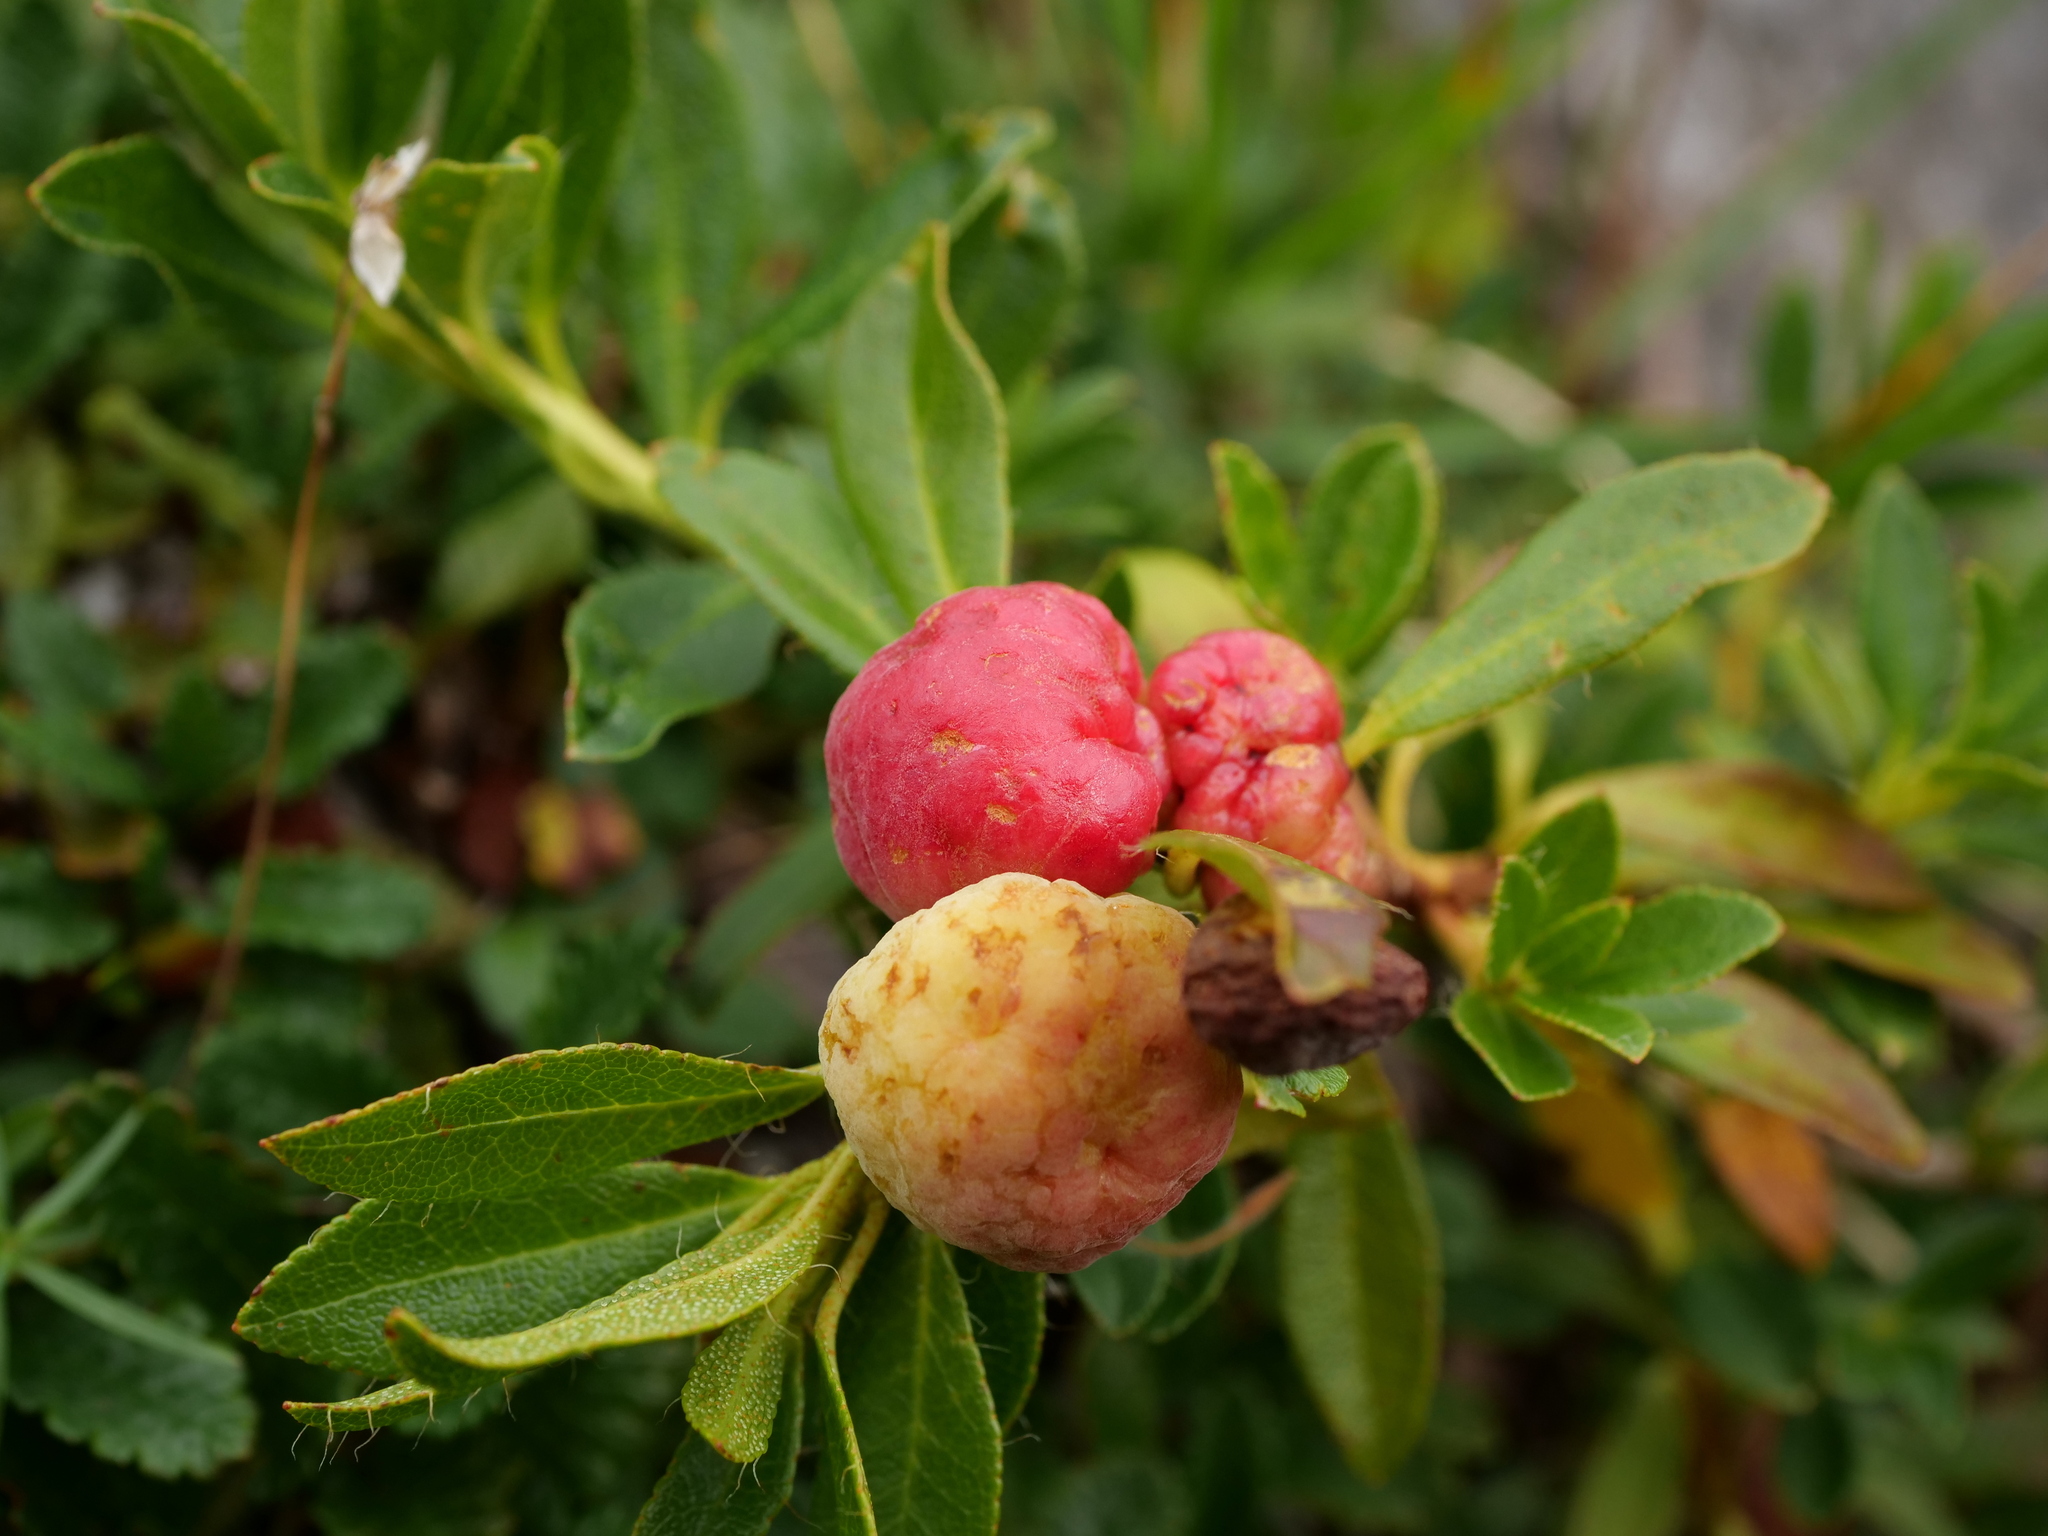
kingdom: Fungi
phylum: Basidiomycota
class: Exobasidiomycetes
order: Exobasidiales
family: Exobasidiaceae
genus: Exobasidium
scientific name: Exobasidium rhododendri
